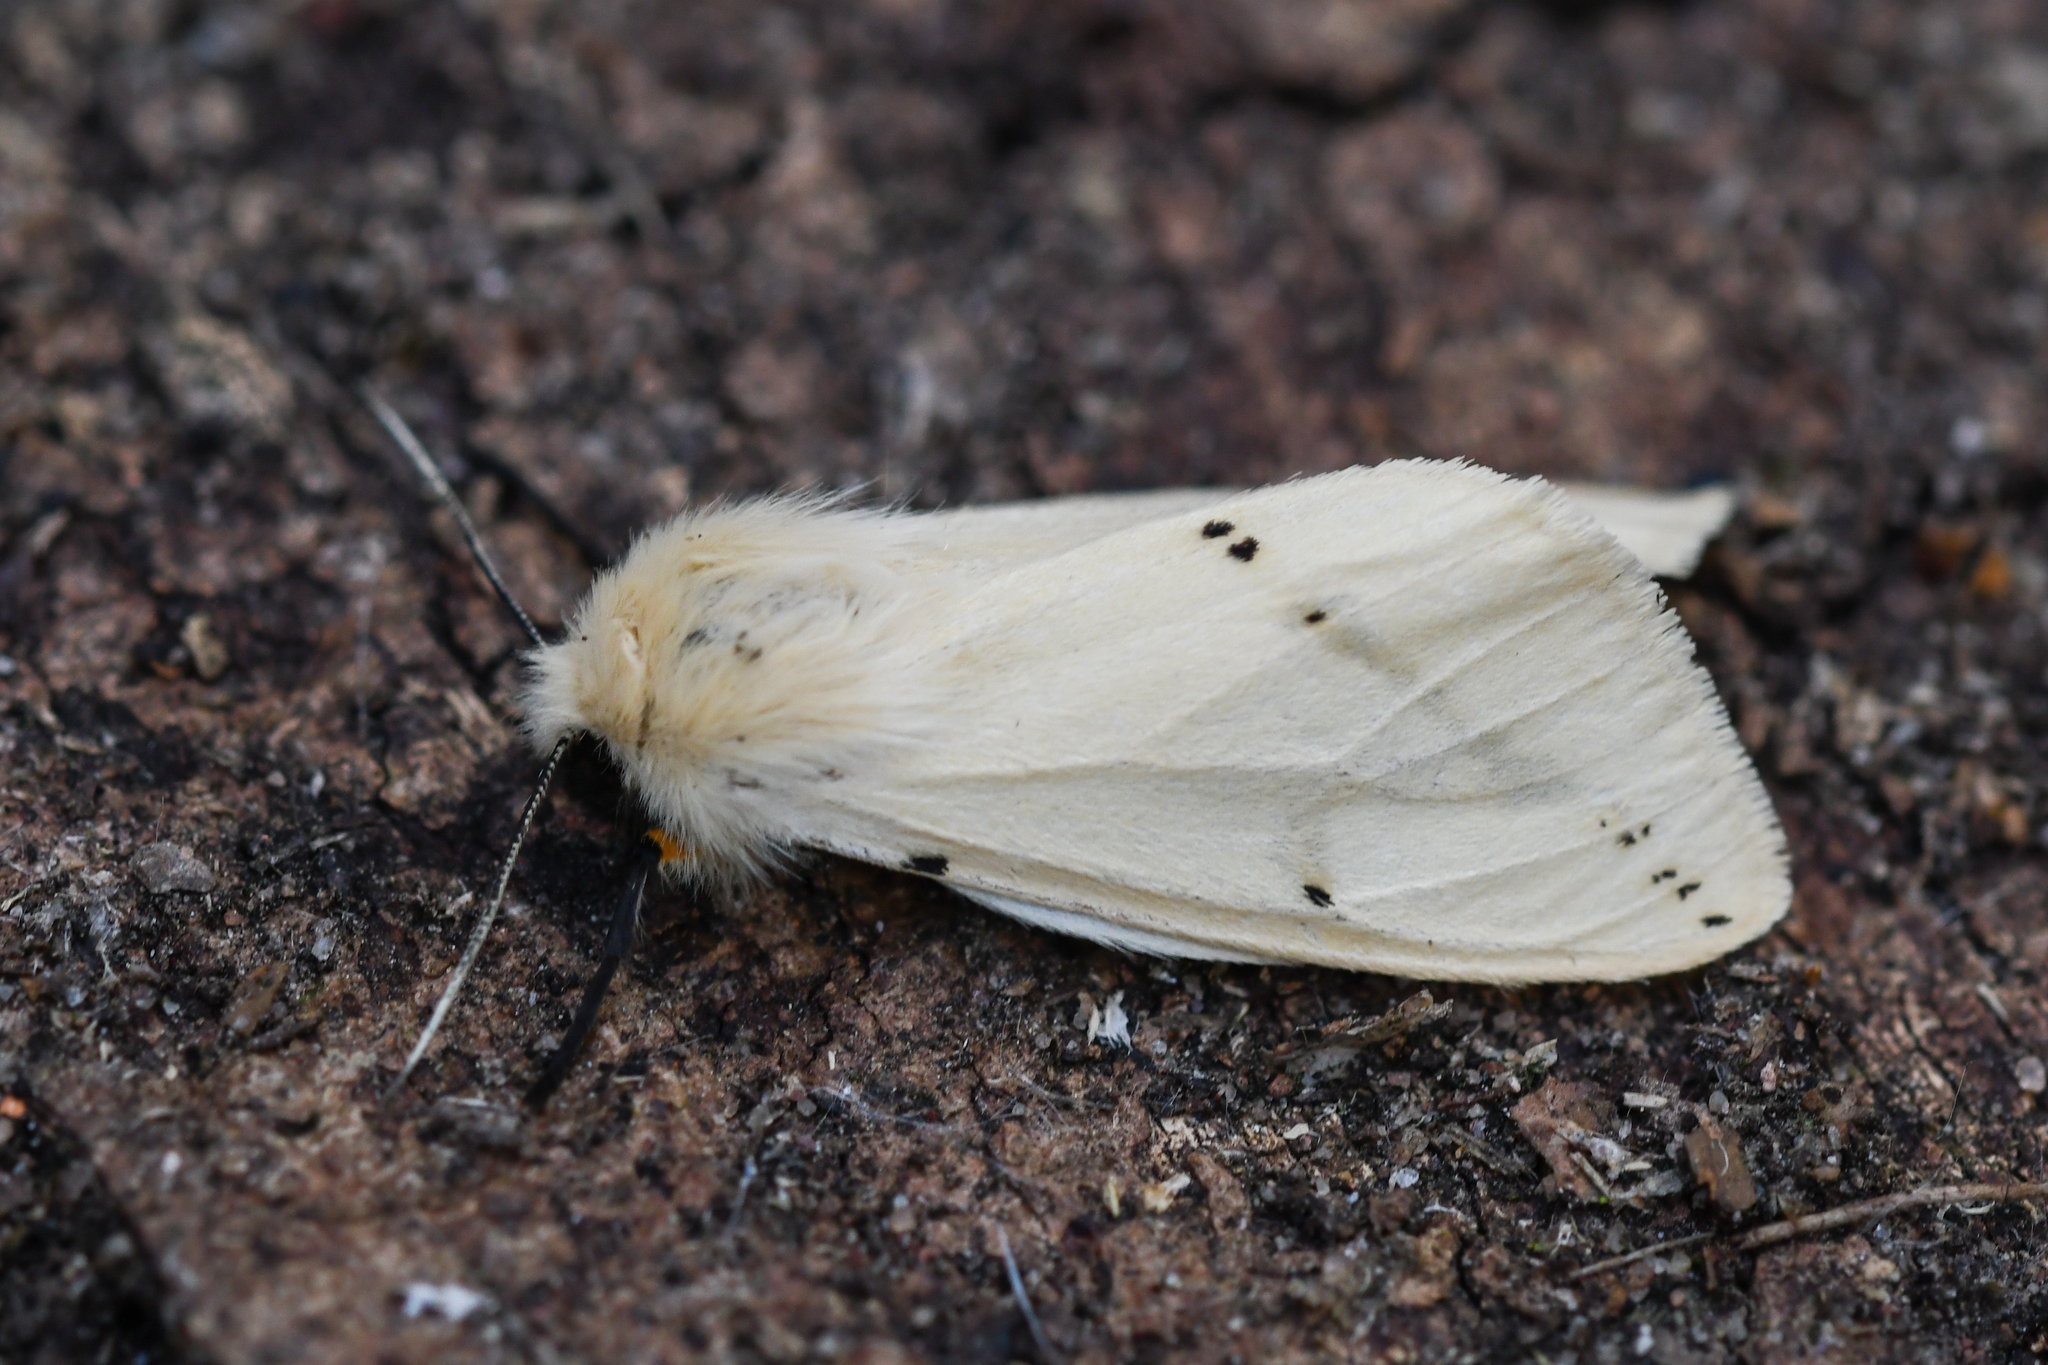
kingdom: Animalia
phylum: Arthropoda
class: Insecta
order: Lepidoptera
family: Erebidae
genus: Spilarctia
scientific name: Spilarctia lutea
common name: Buff ermine
